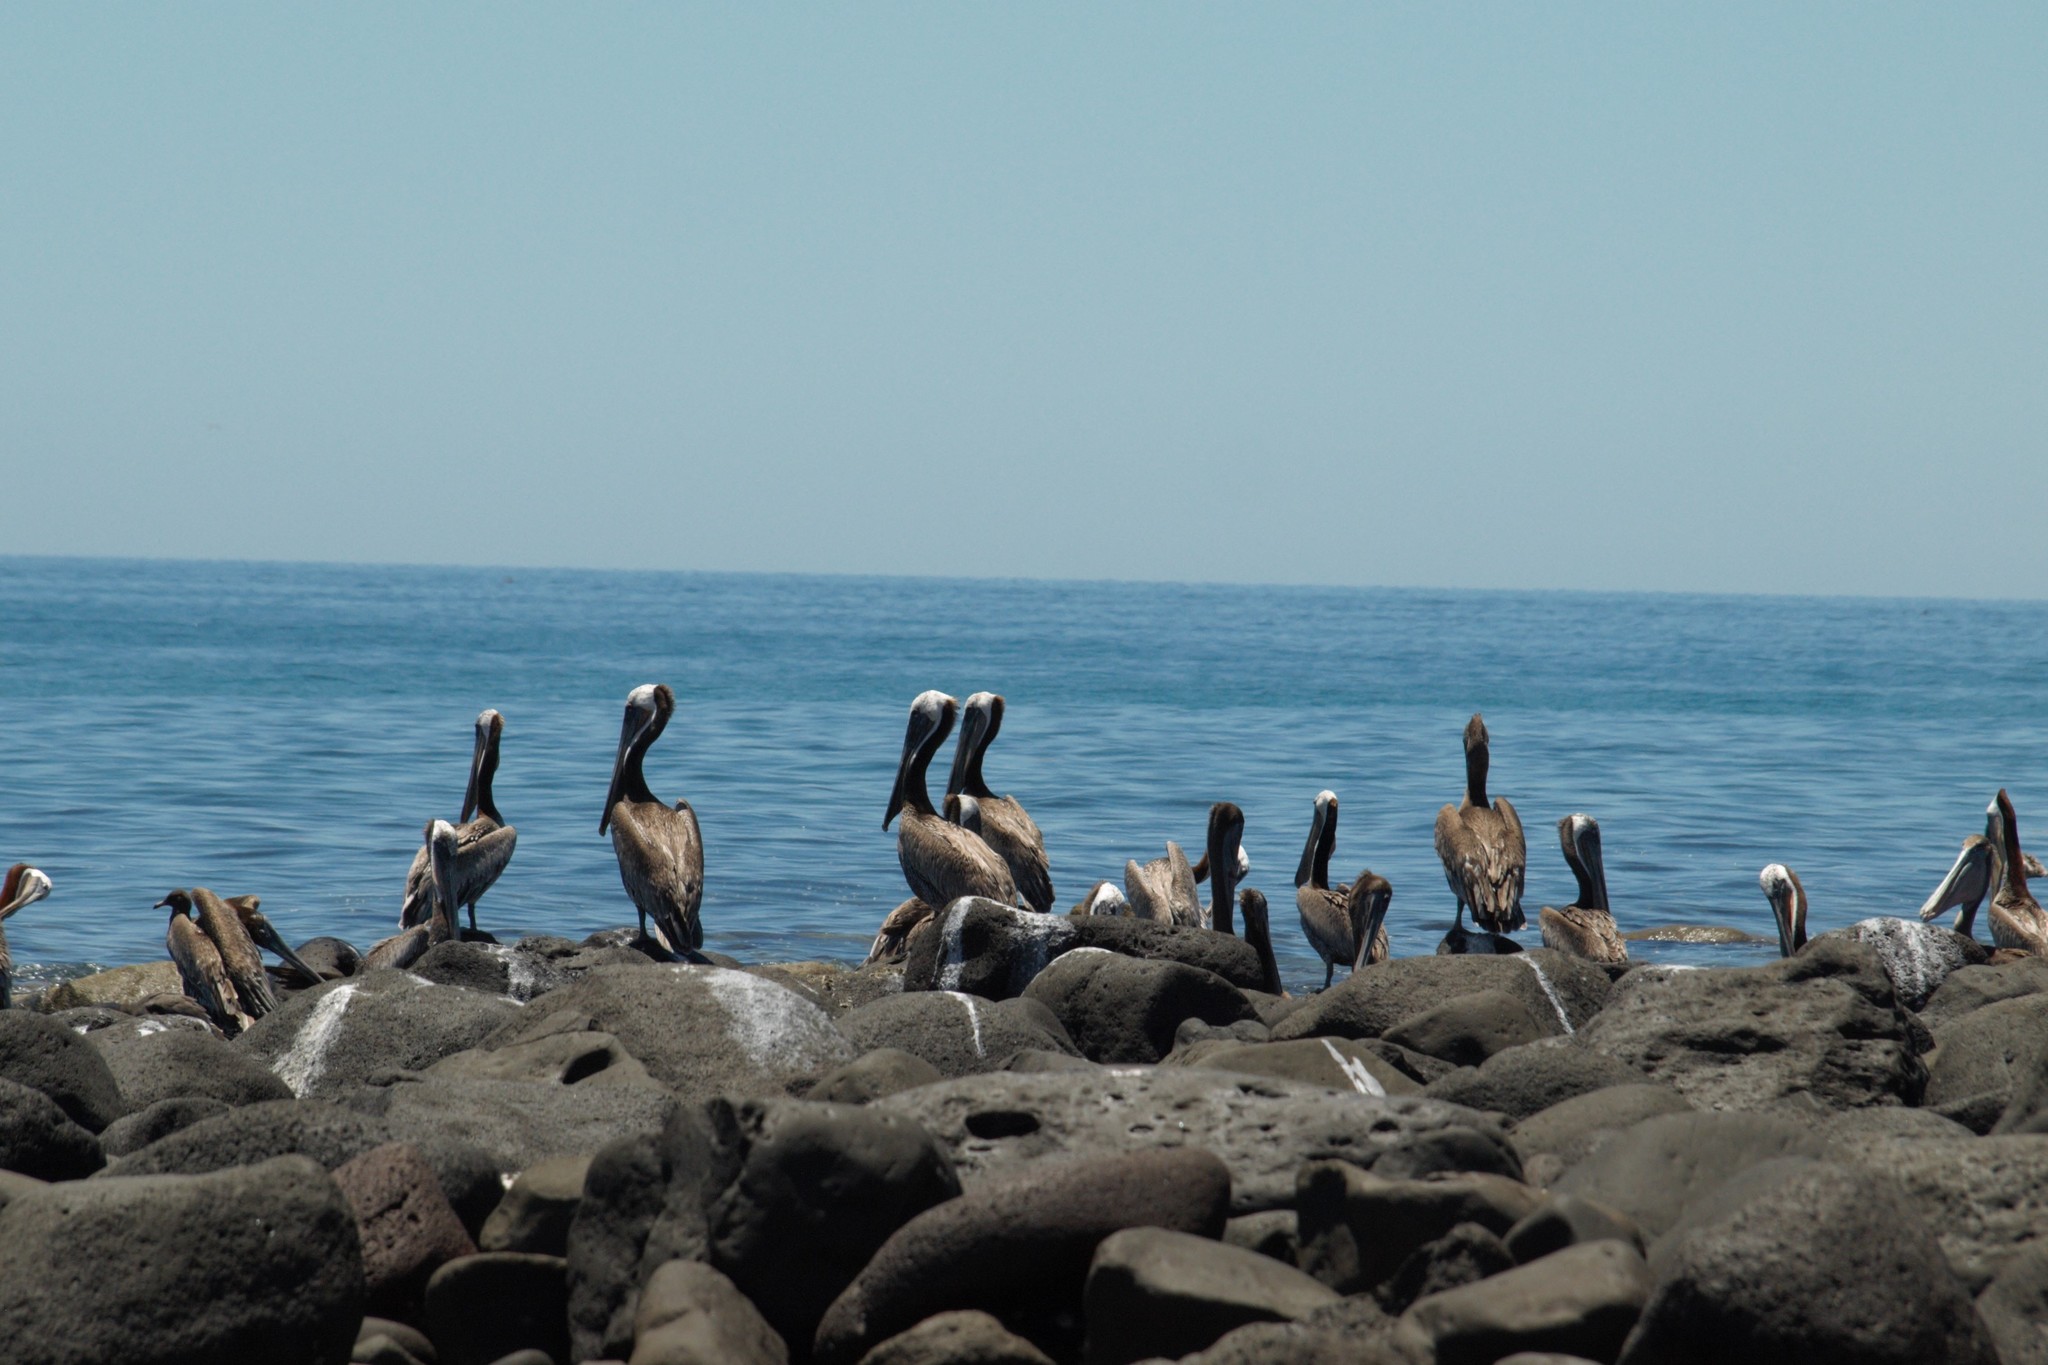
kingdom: Animalia
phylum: Chordata
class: Aves
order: Pelecaniformes
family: Pelecanidae
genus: Pelecanus
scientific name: Pelecanus occidentalis
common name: Brown pelican
